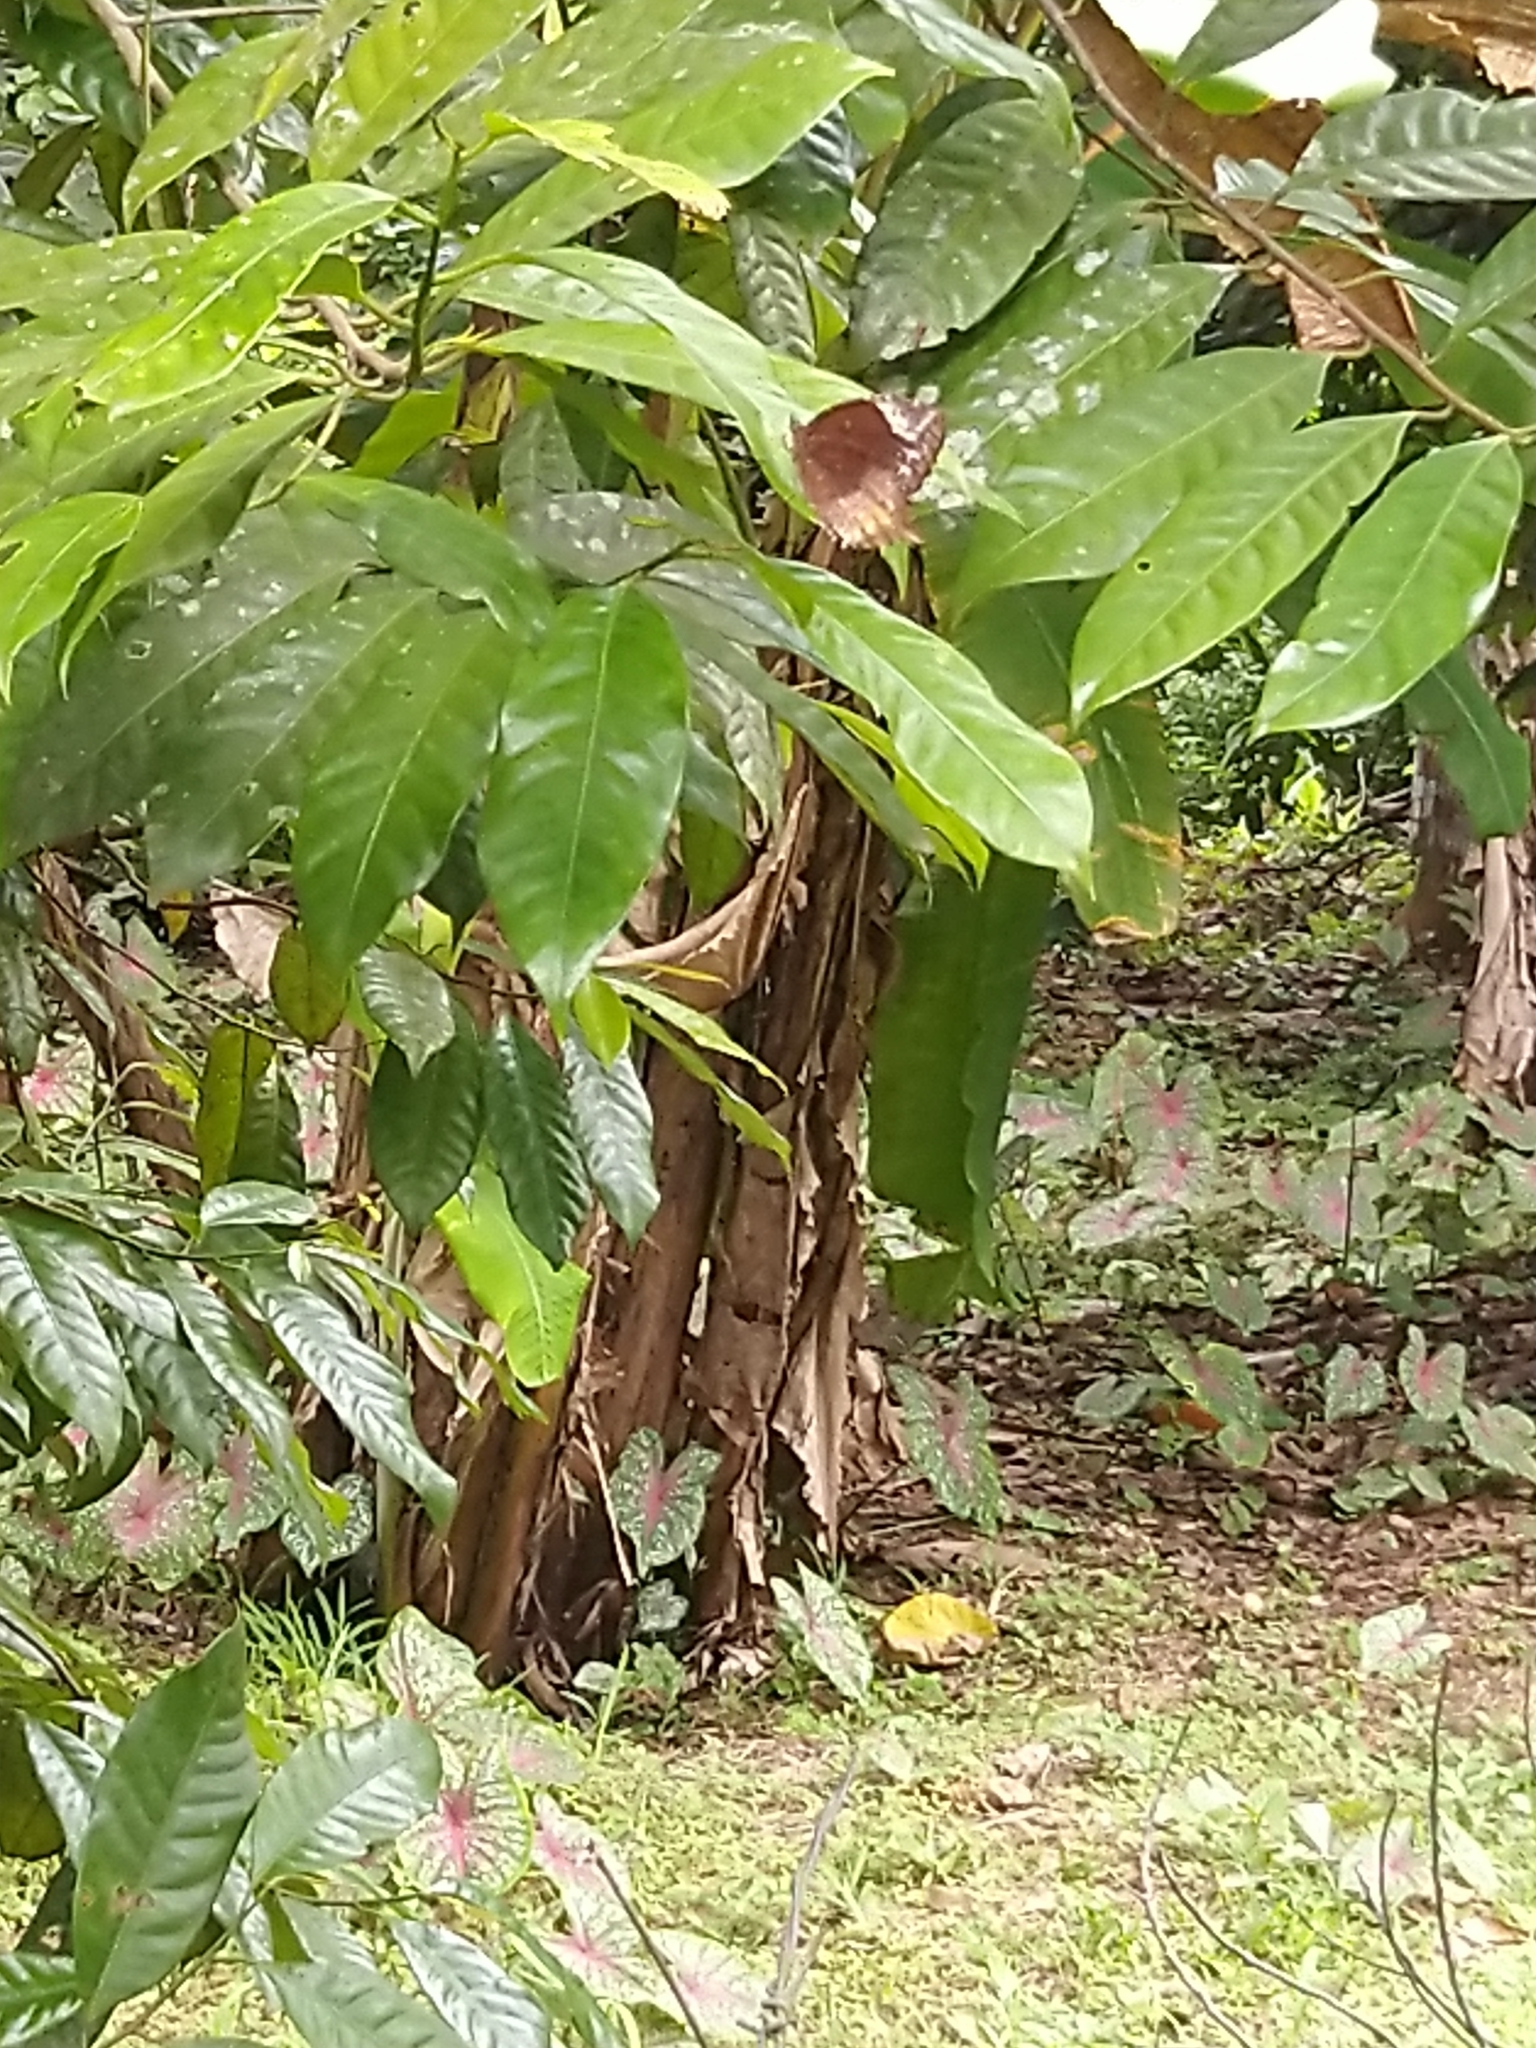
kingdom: Animalia
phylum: Arthropoda
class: Insecta
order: Lepidoptera
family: Nymphalidae
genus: Elymnias
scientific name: Elymnias caudata
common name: Tailed palmfly
